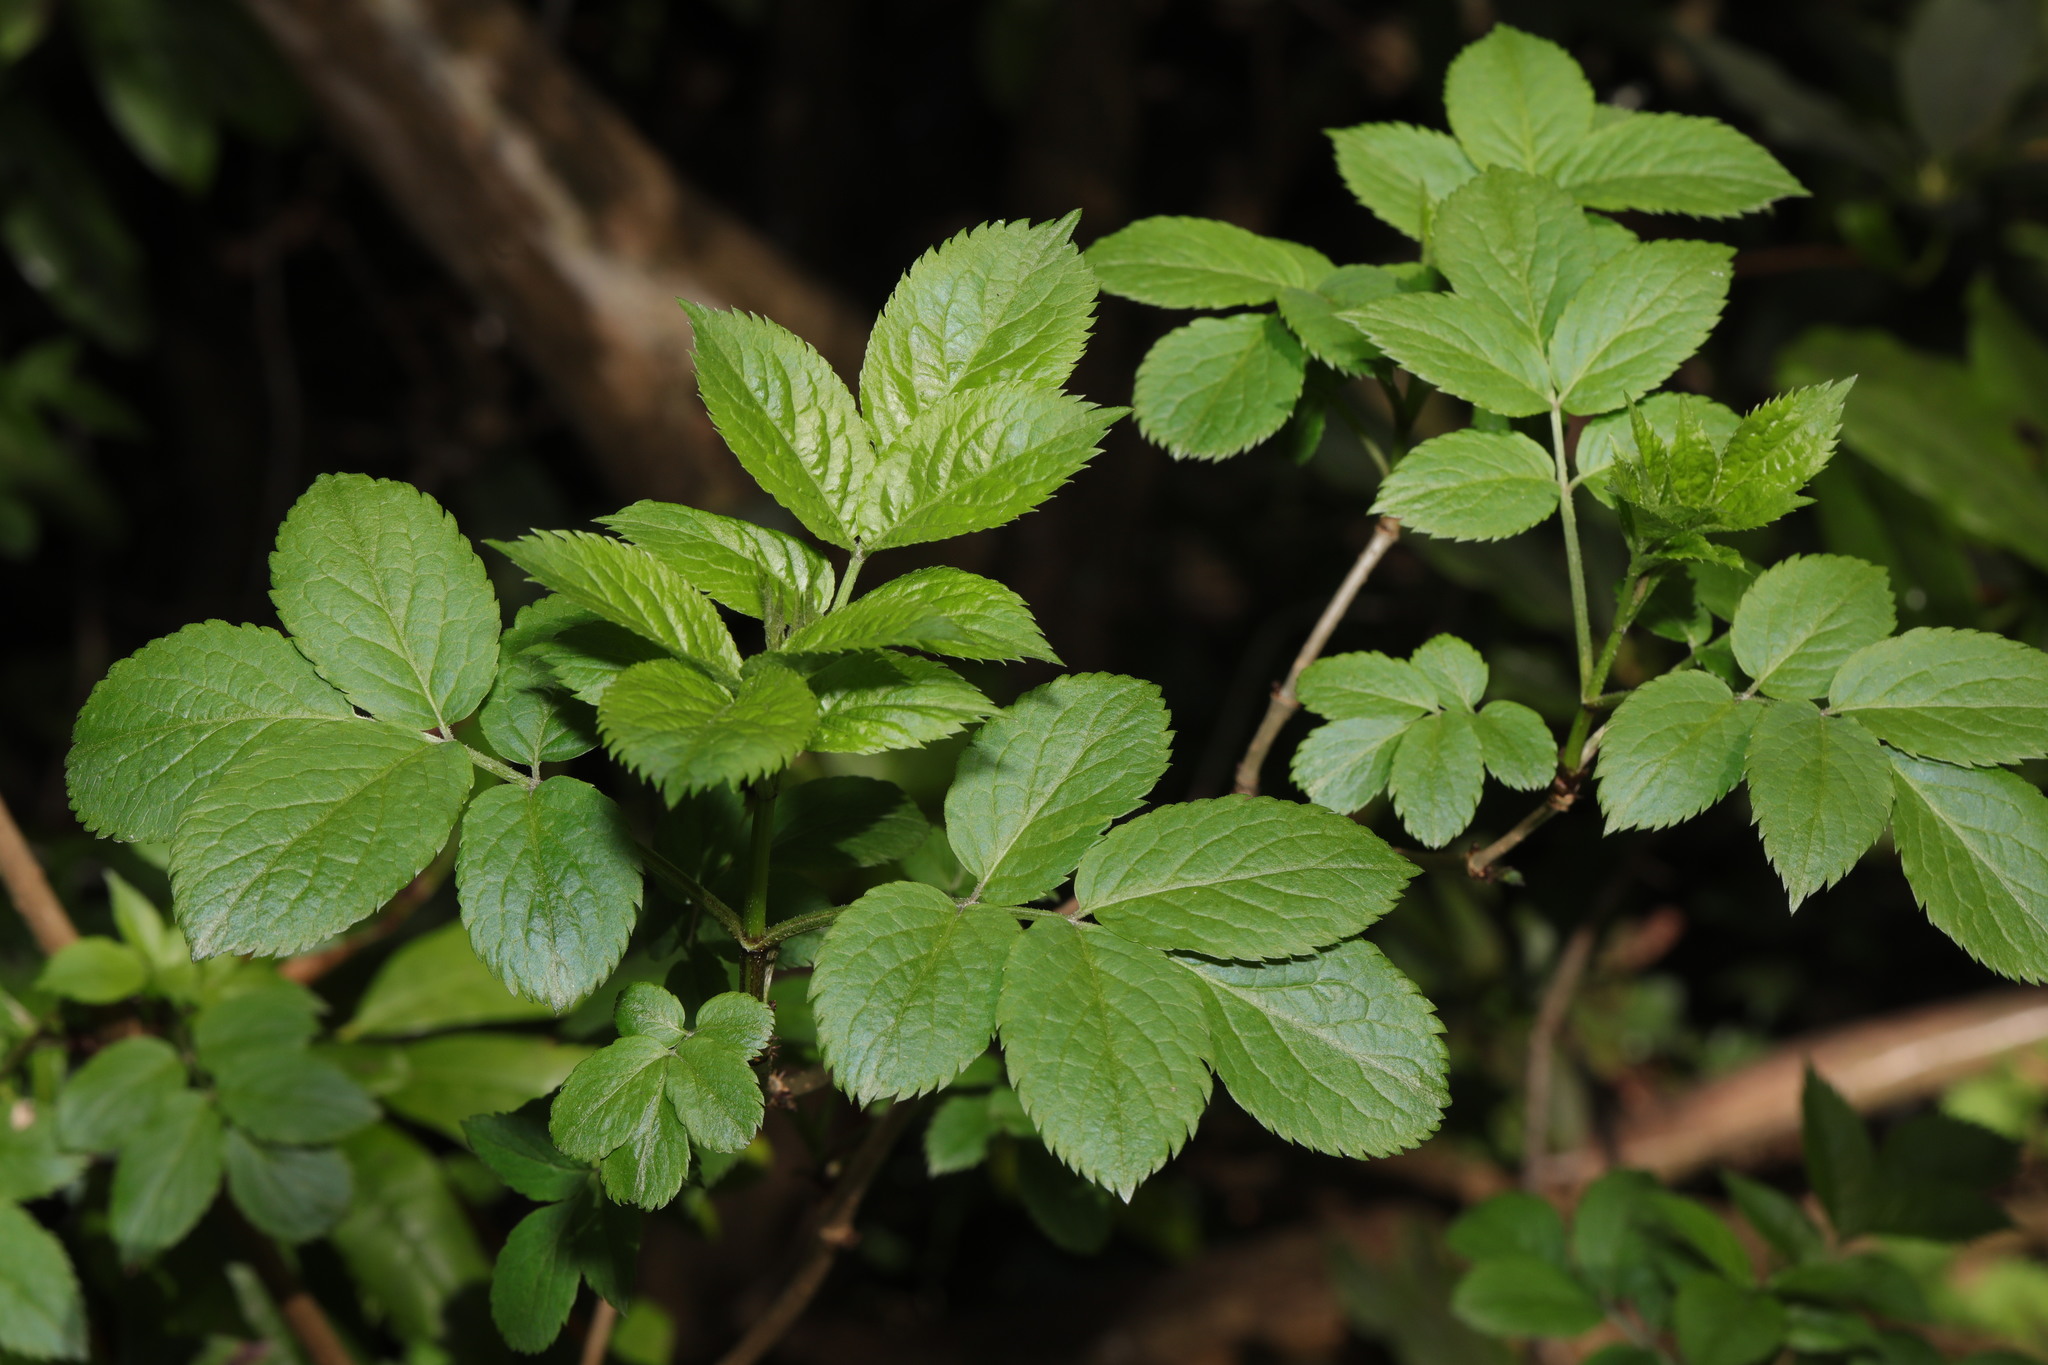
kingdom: Plantae
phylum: Tracheophyta
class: Magnoliopsida
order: Dipsacales
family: Viburnaceae
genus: Sambucus
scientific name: Sambucus nigra
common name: Elder
